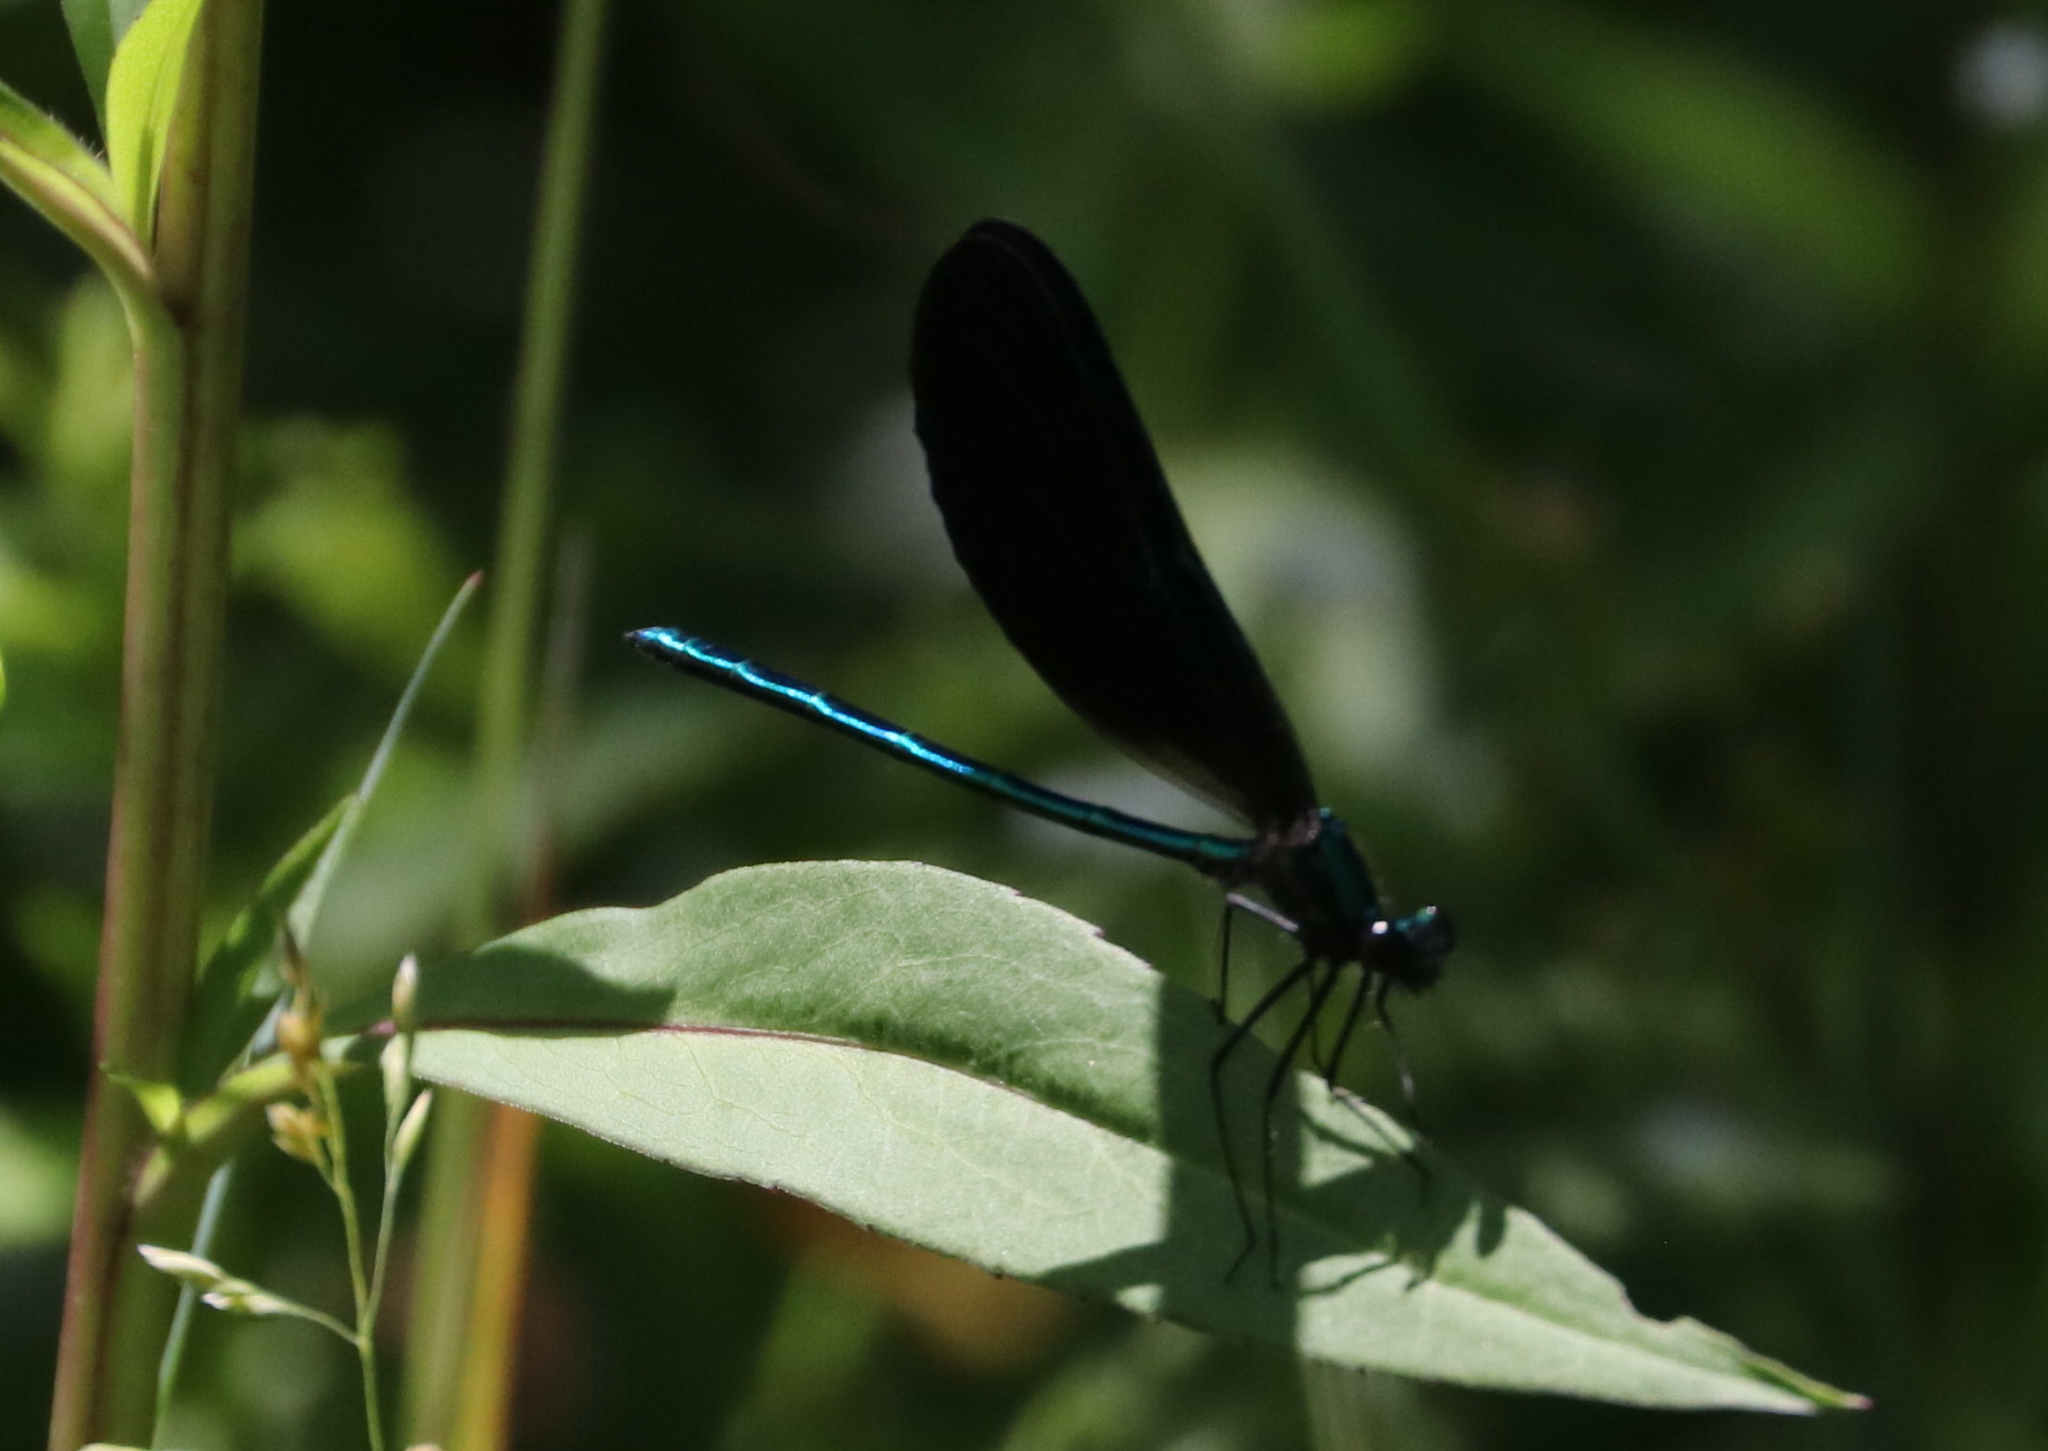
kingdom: Animalia
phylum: Arthropoda
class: Insecta
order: Odonata
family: Calopterygidae
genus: Calopteryx
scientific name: Calopteryx maculata
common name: Ebony jewelwing
